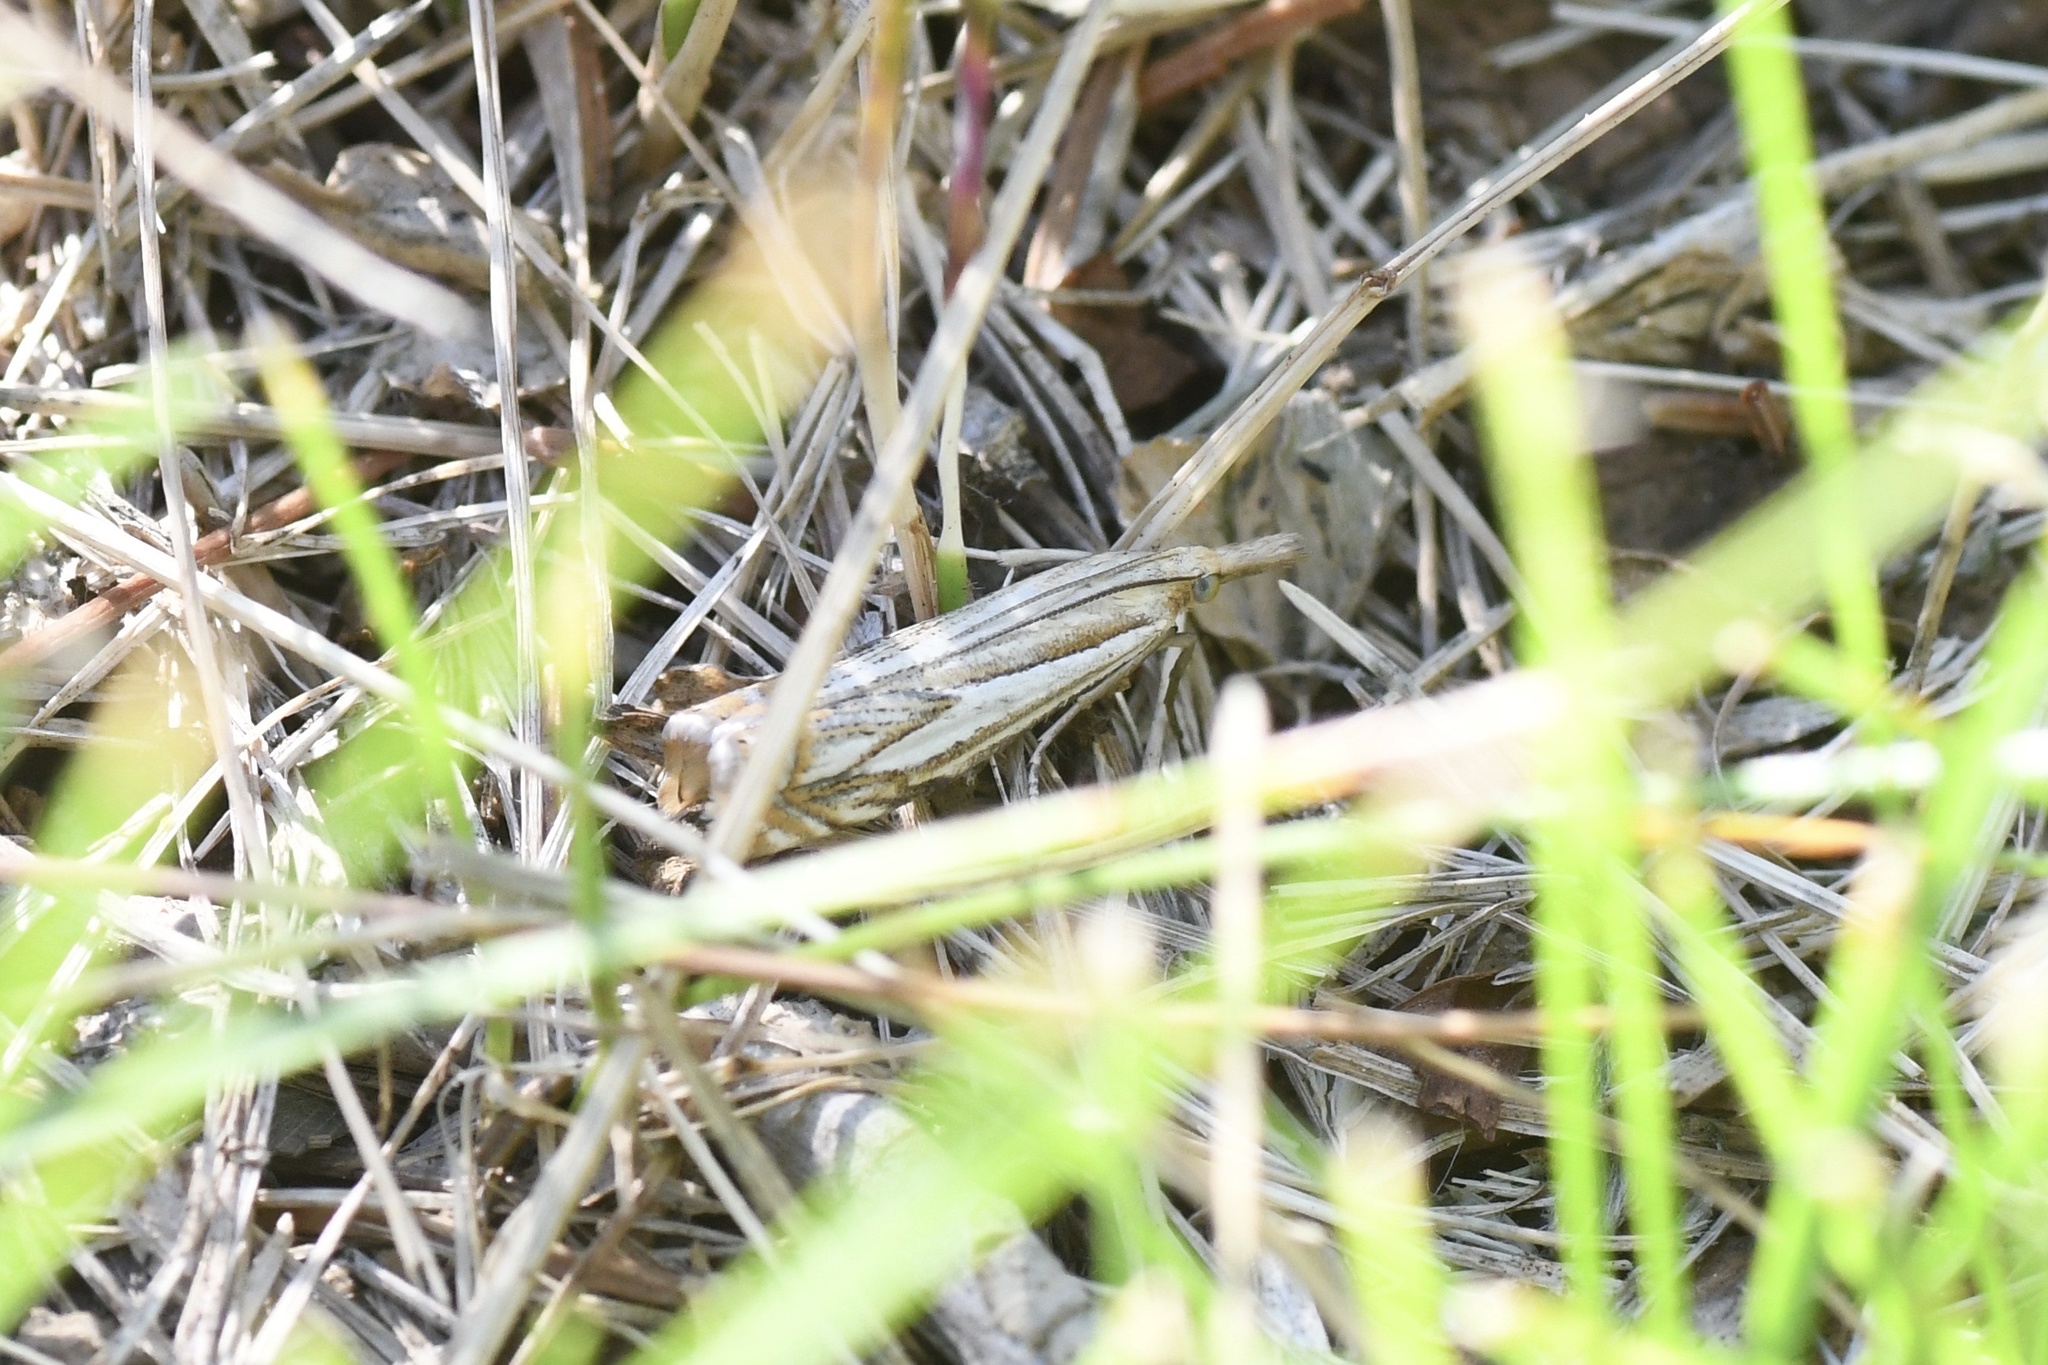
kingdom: Animalia
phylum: Arthropoda
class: Insecta
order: Lepidoptera
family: Crambidae
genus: Crambus
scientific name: Crambus saltuellus
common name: Pasture grass-veneer
